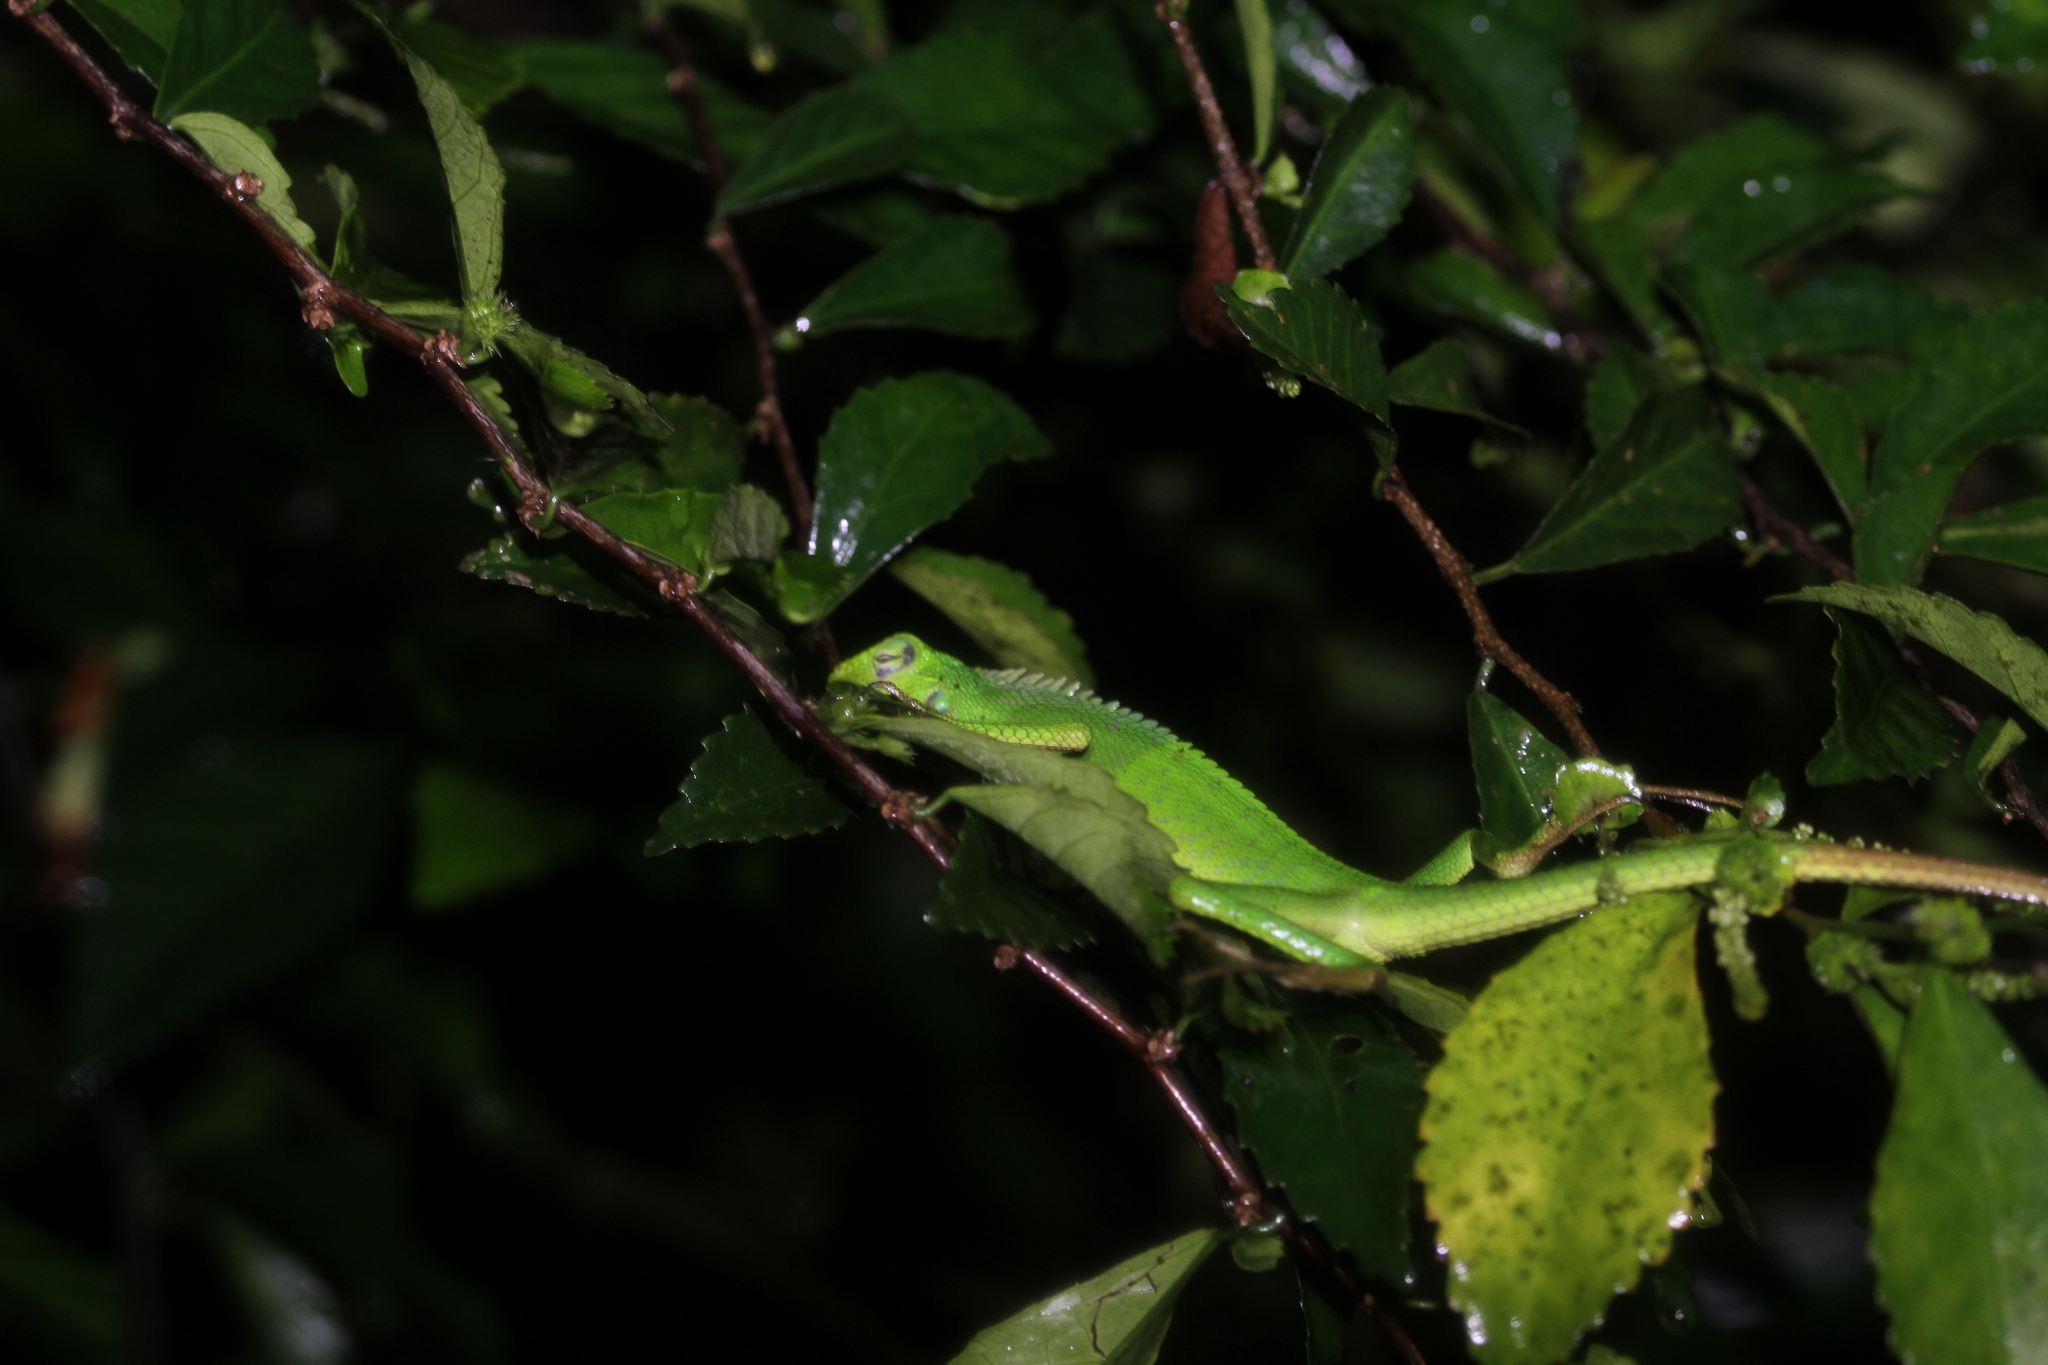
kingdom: Animalia
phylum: Chordata
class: Squamata
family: Agamidae
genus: Bronchocela
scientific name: Bronchocela jubata
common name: Maned forest lizard
